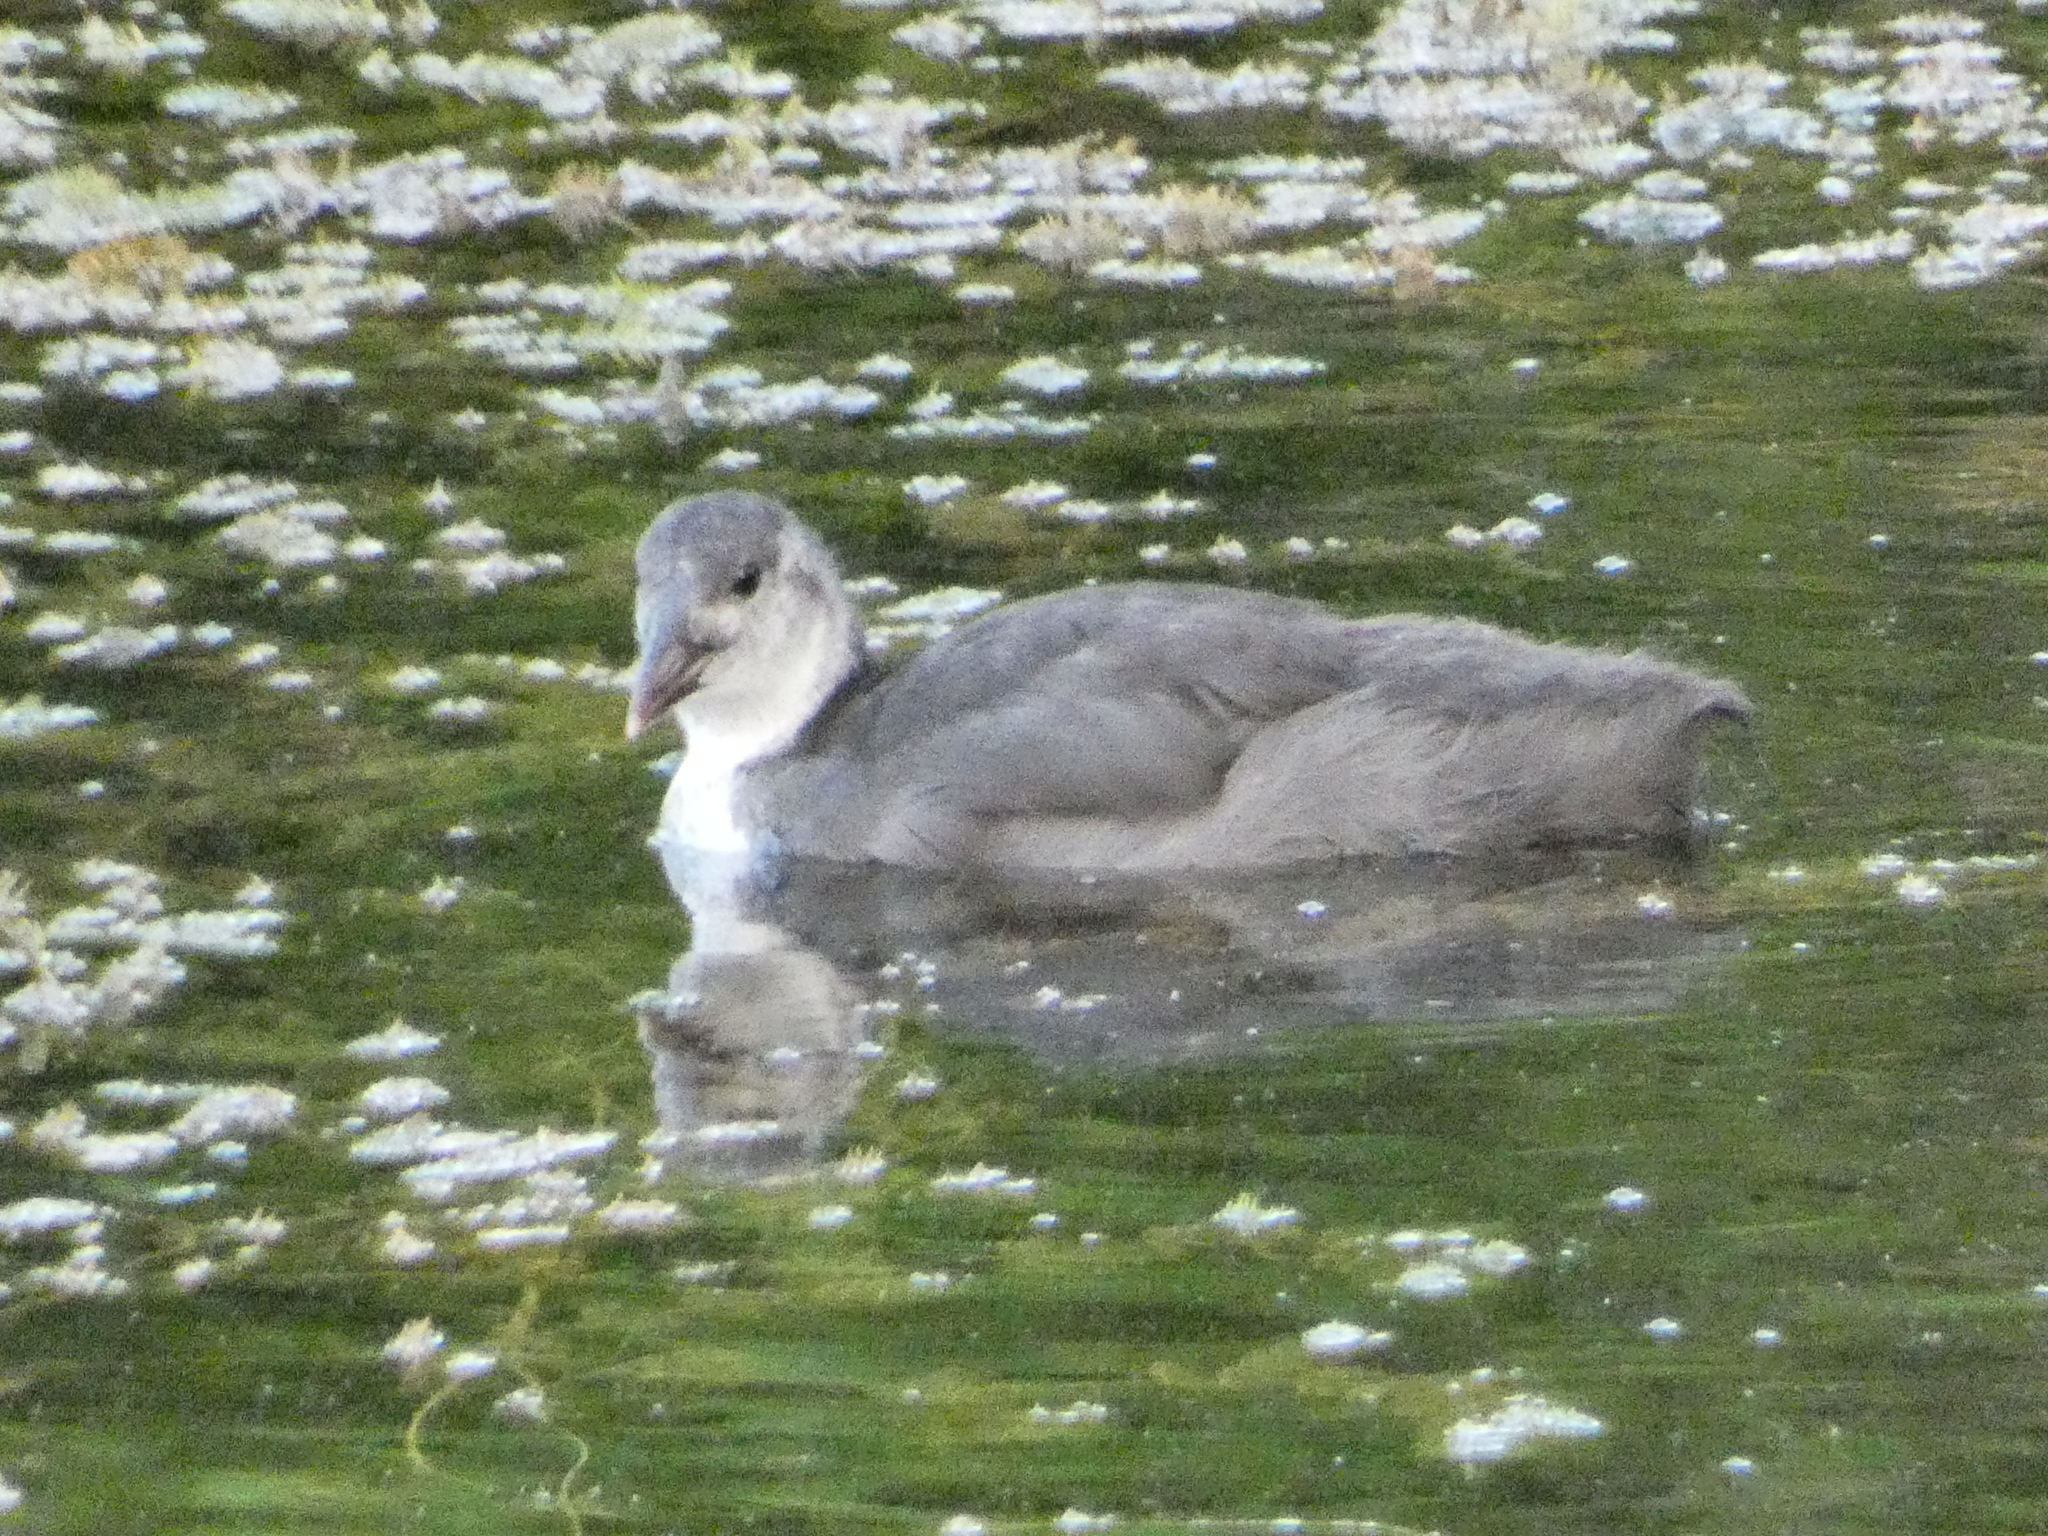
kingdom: Animalia
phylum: Chordata
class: Aves
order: Gruiformes
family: Rallidae
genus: Fulica
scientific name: Fulica atra
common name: Eurasian coot
